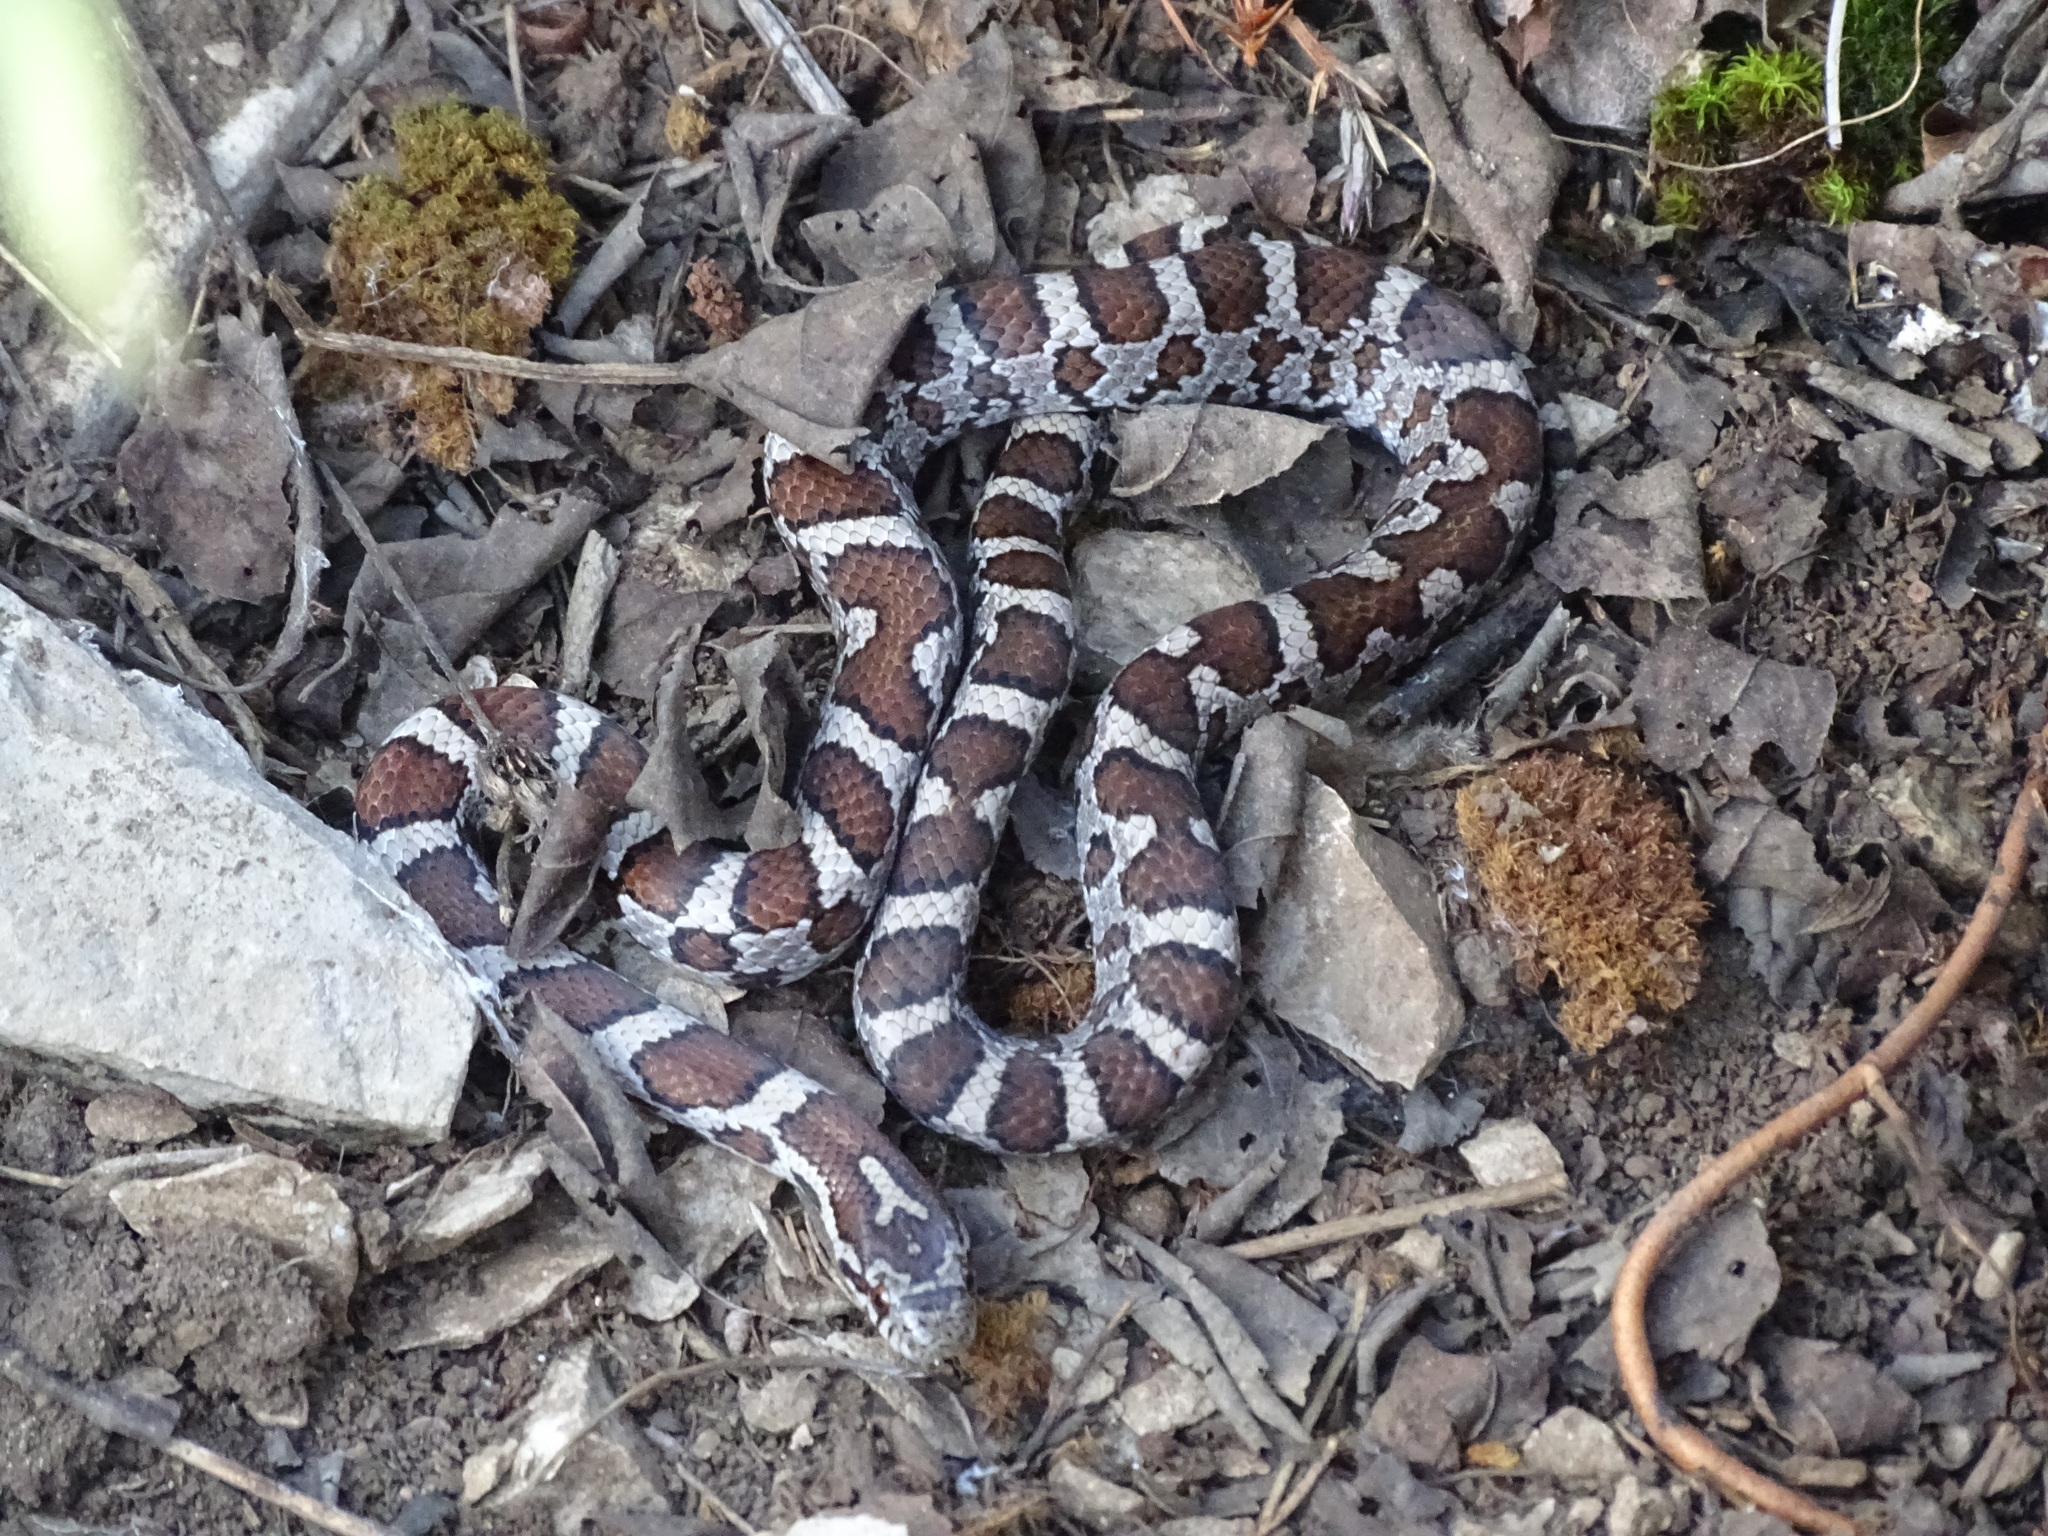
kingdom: Animalia
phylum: Chordata
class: Squamata
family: Colubridae
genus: Lampropeltis
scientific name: Lampropeltis triangulum
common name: Eastern milksnake
